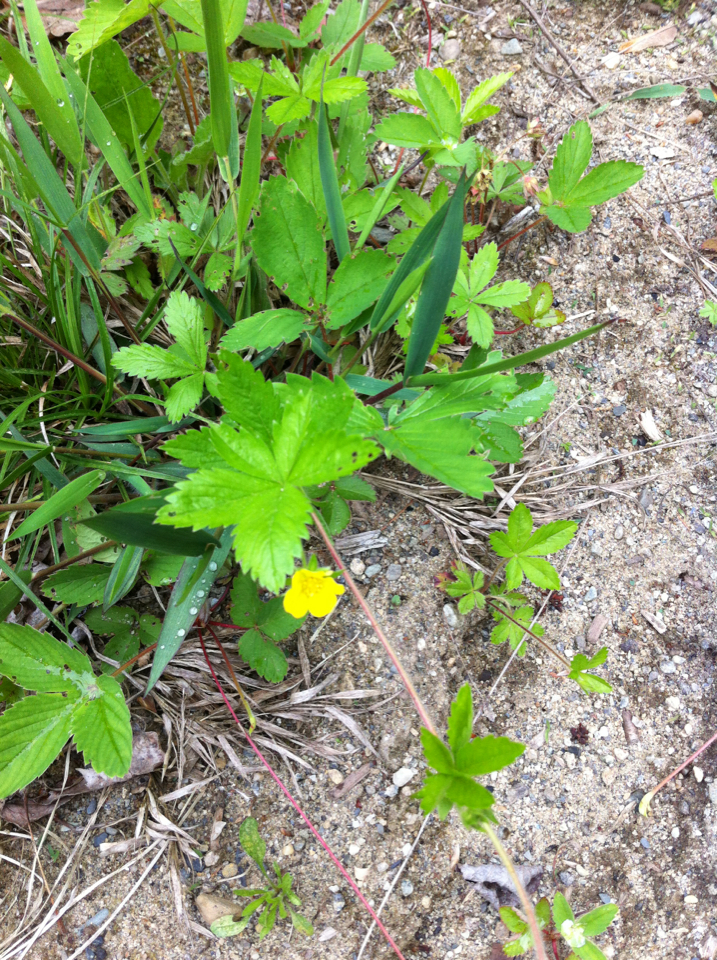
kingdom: Plantae
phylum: Tracheophyta
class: Magnoliopsida
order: Rosales
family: Rosaceae
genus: Potentilla
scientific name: Potentilla simplex
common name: Old field cinquefoil
